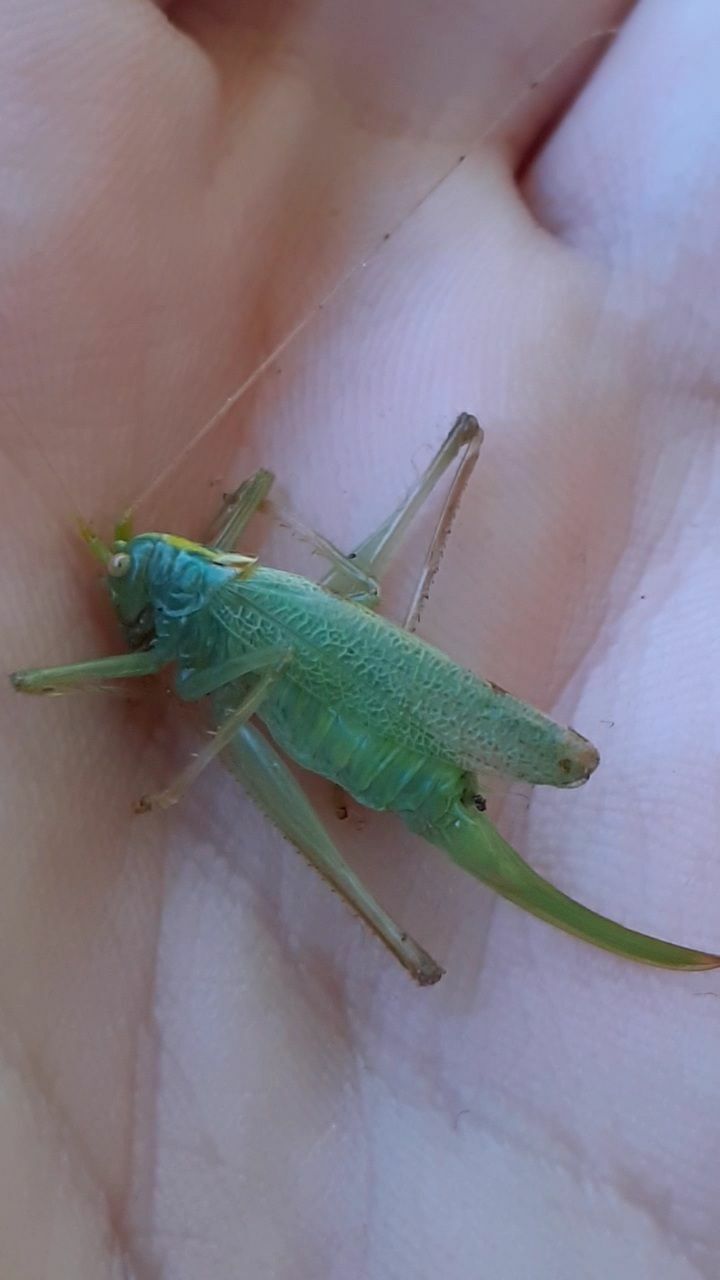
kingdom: Animalia
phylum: Arthropoda
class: Insecta
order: Orthoptera
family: Tettigoniidae
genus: Meconema
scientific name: Meconema thalassinum
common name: Oak bush-cricket
